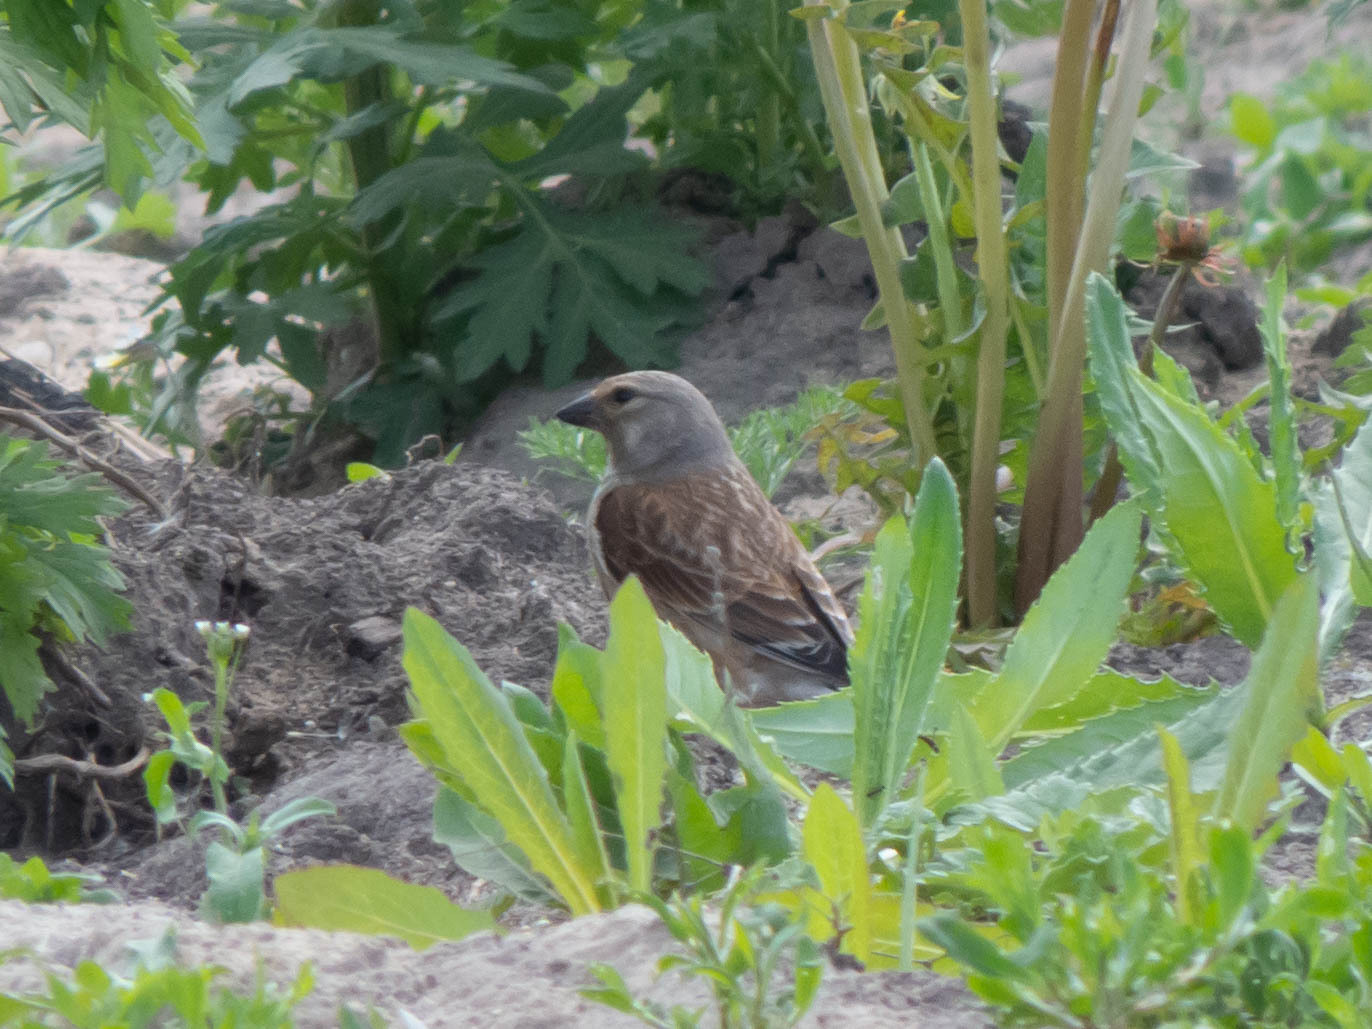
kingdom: Animalia
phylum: Chordata
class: Aves
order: Passeriformes
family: Fringillidae
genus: Linaria
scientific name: Linaria cannabina
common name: Common linnet
